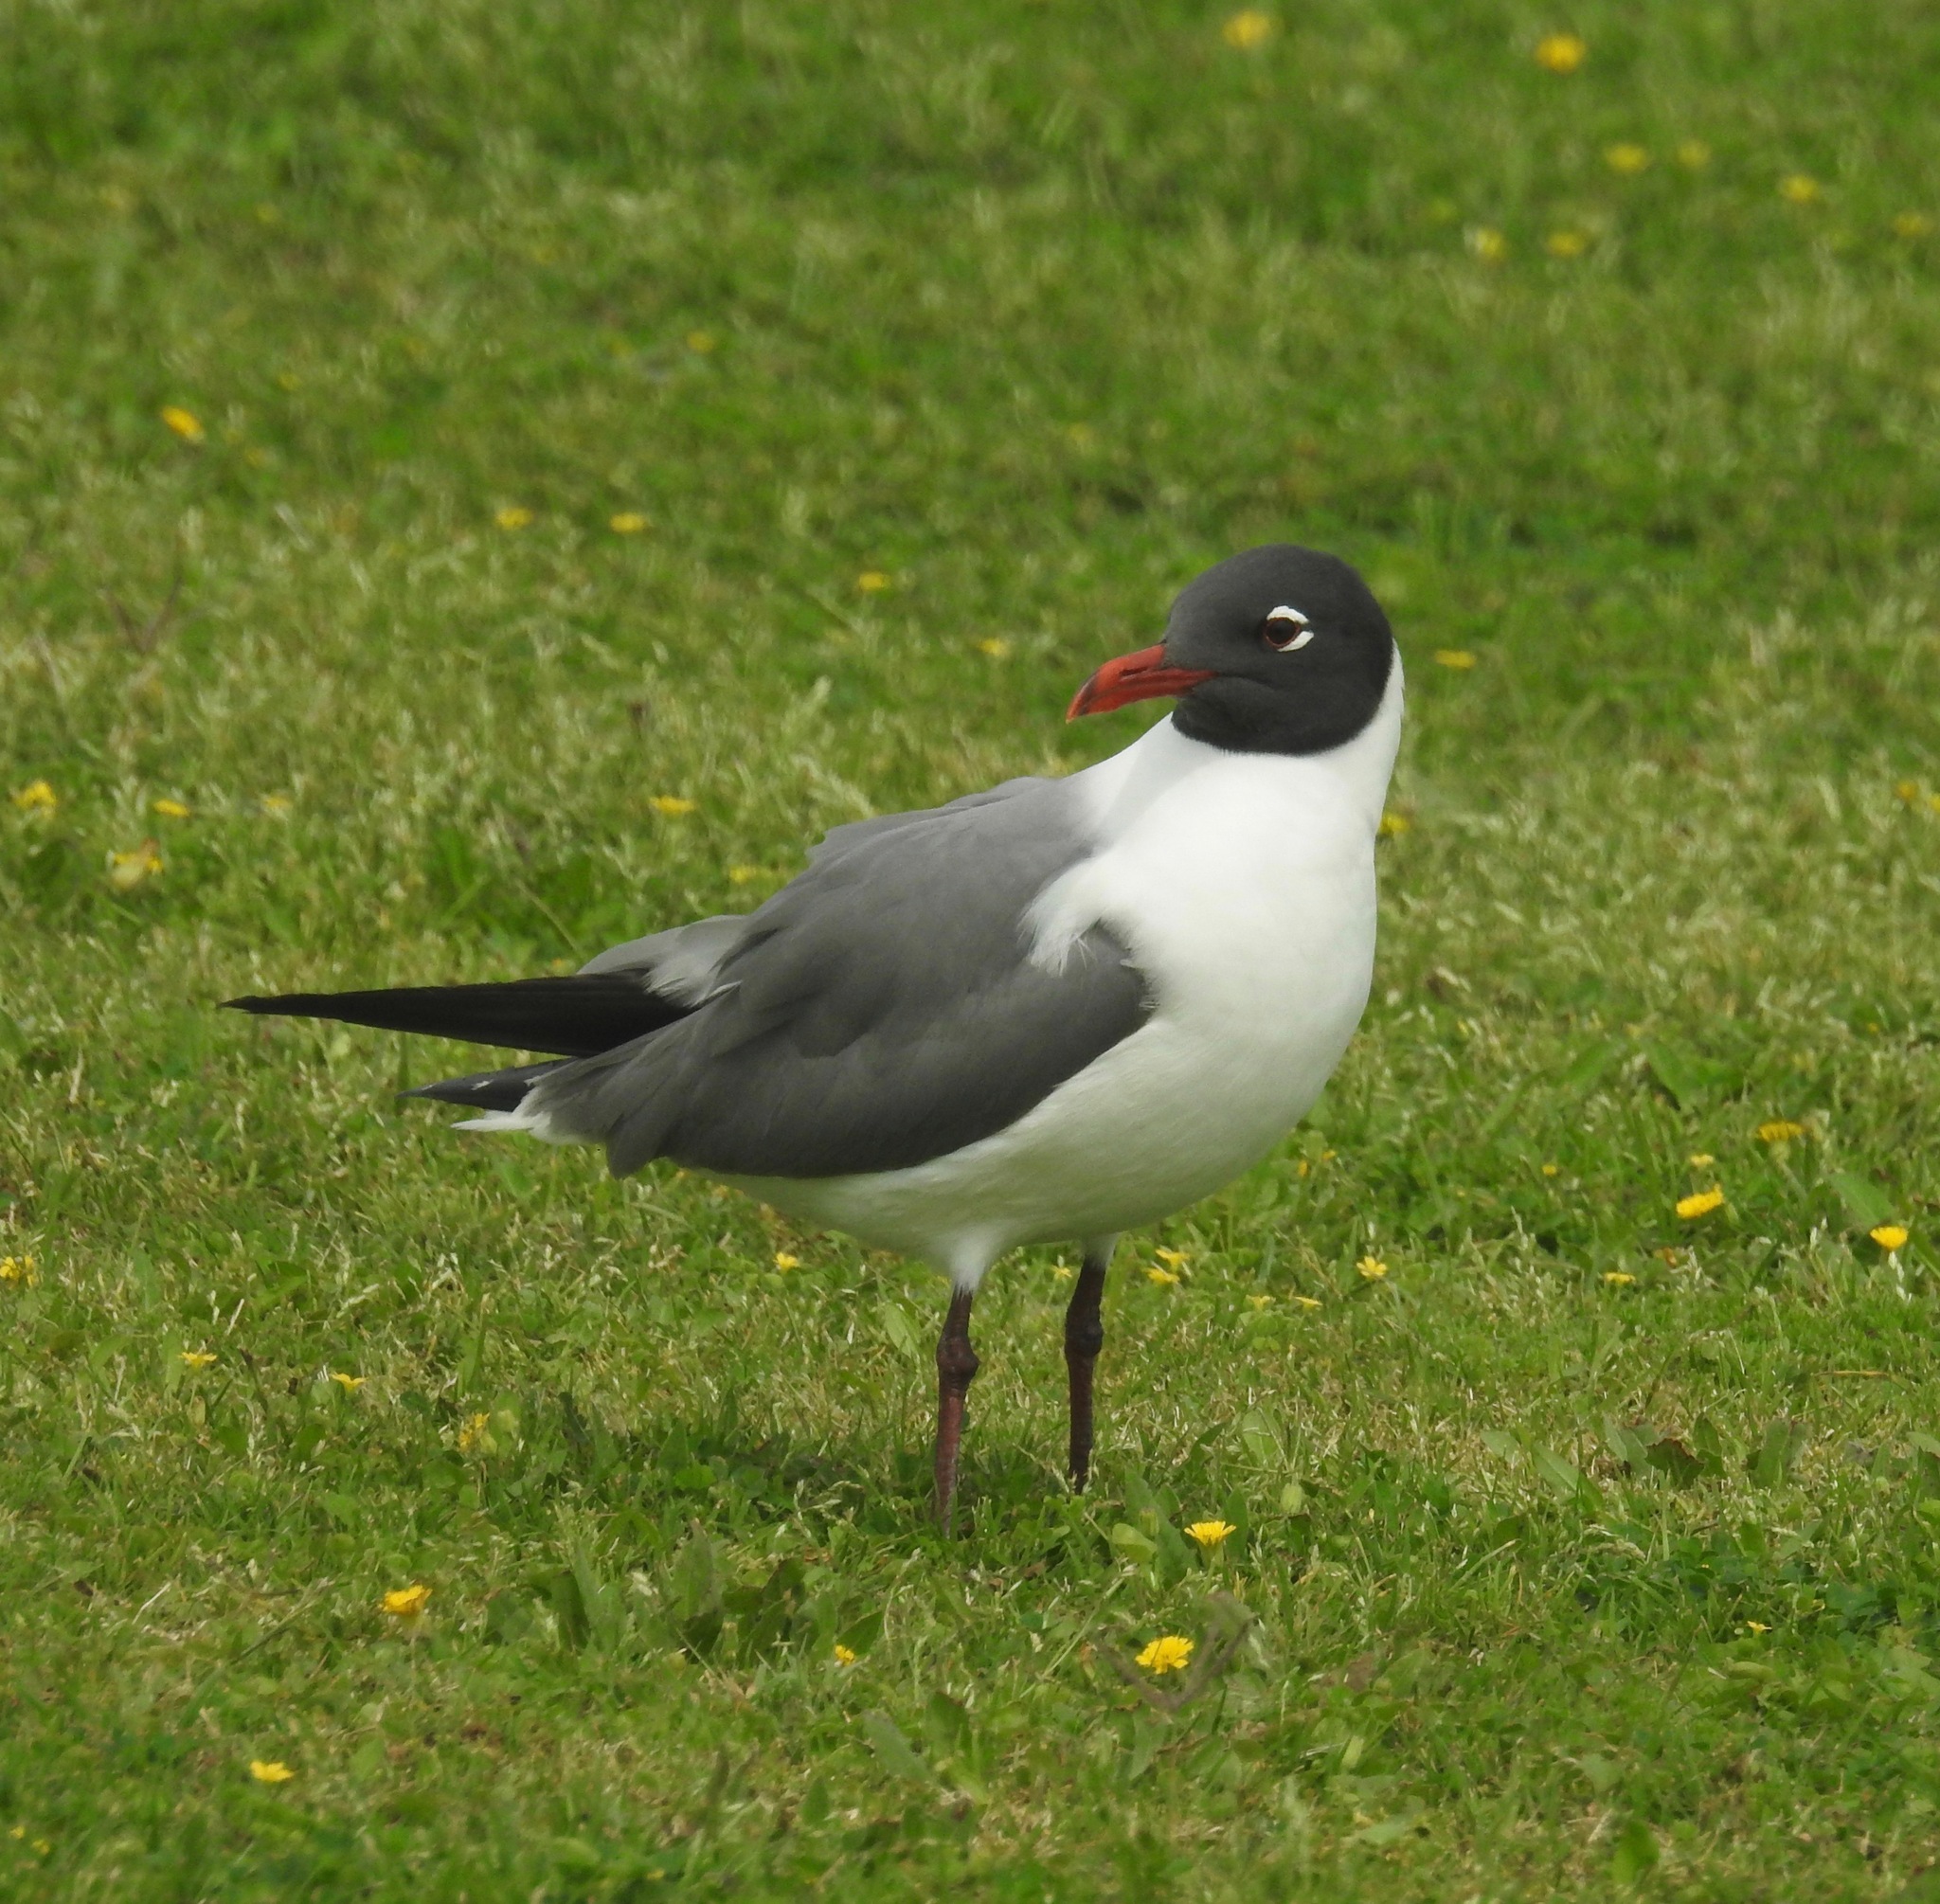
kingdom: Animalia
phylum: Chordata
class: Aves
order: Charadriiformes
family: Laridae
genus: Leucophaeus
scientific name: Leucophaeus atricilla
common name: Laughing gull
